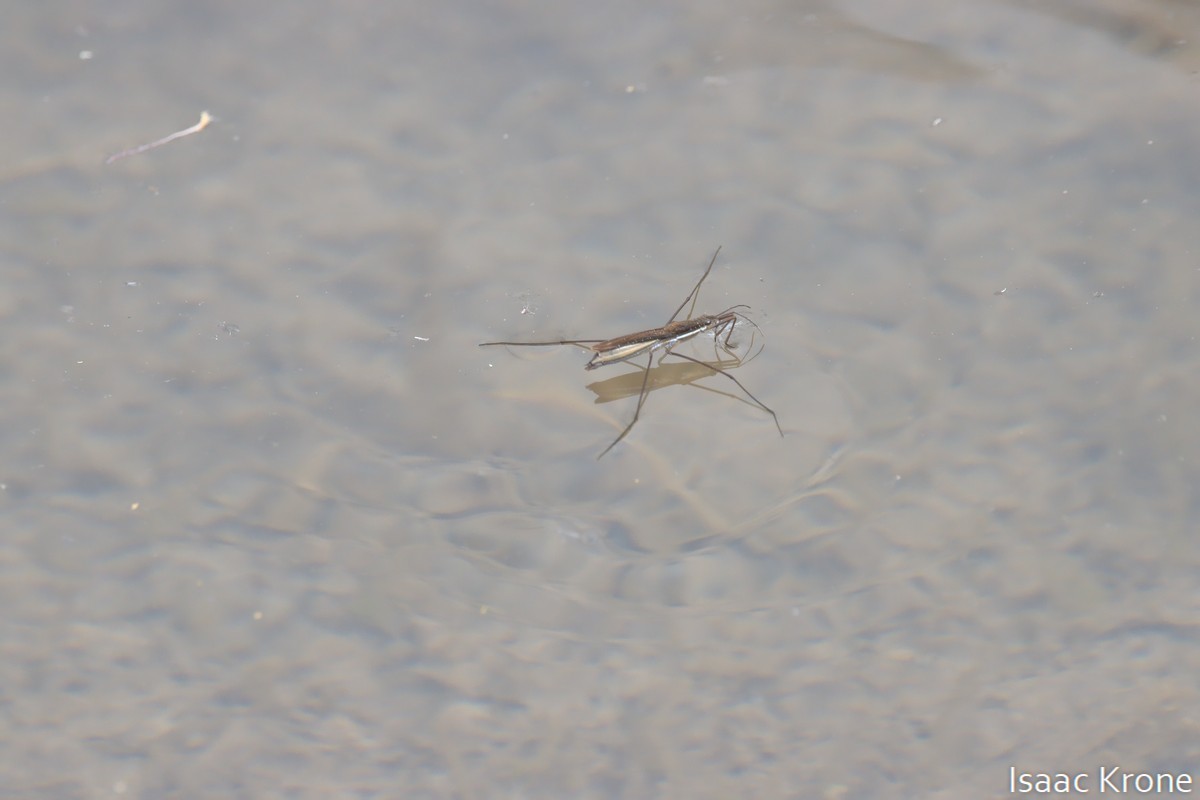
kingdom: Animalia
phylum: Arthropoda
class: Insecta
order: Hemiptera
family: Gerridae
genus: Limnoporus
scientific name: Limnoporus notabilis
